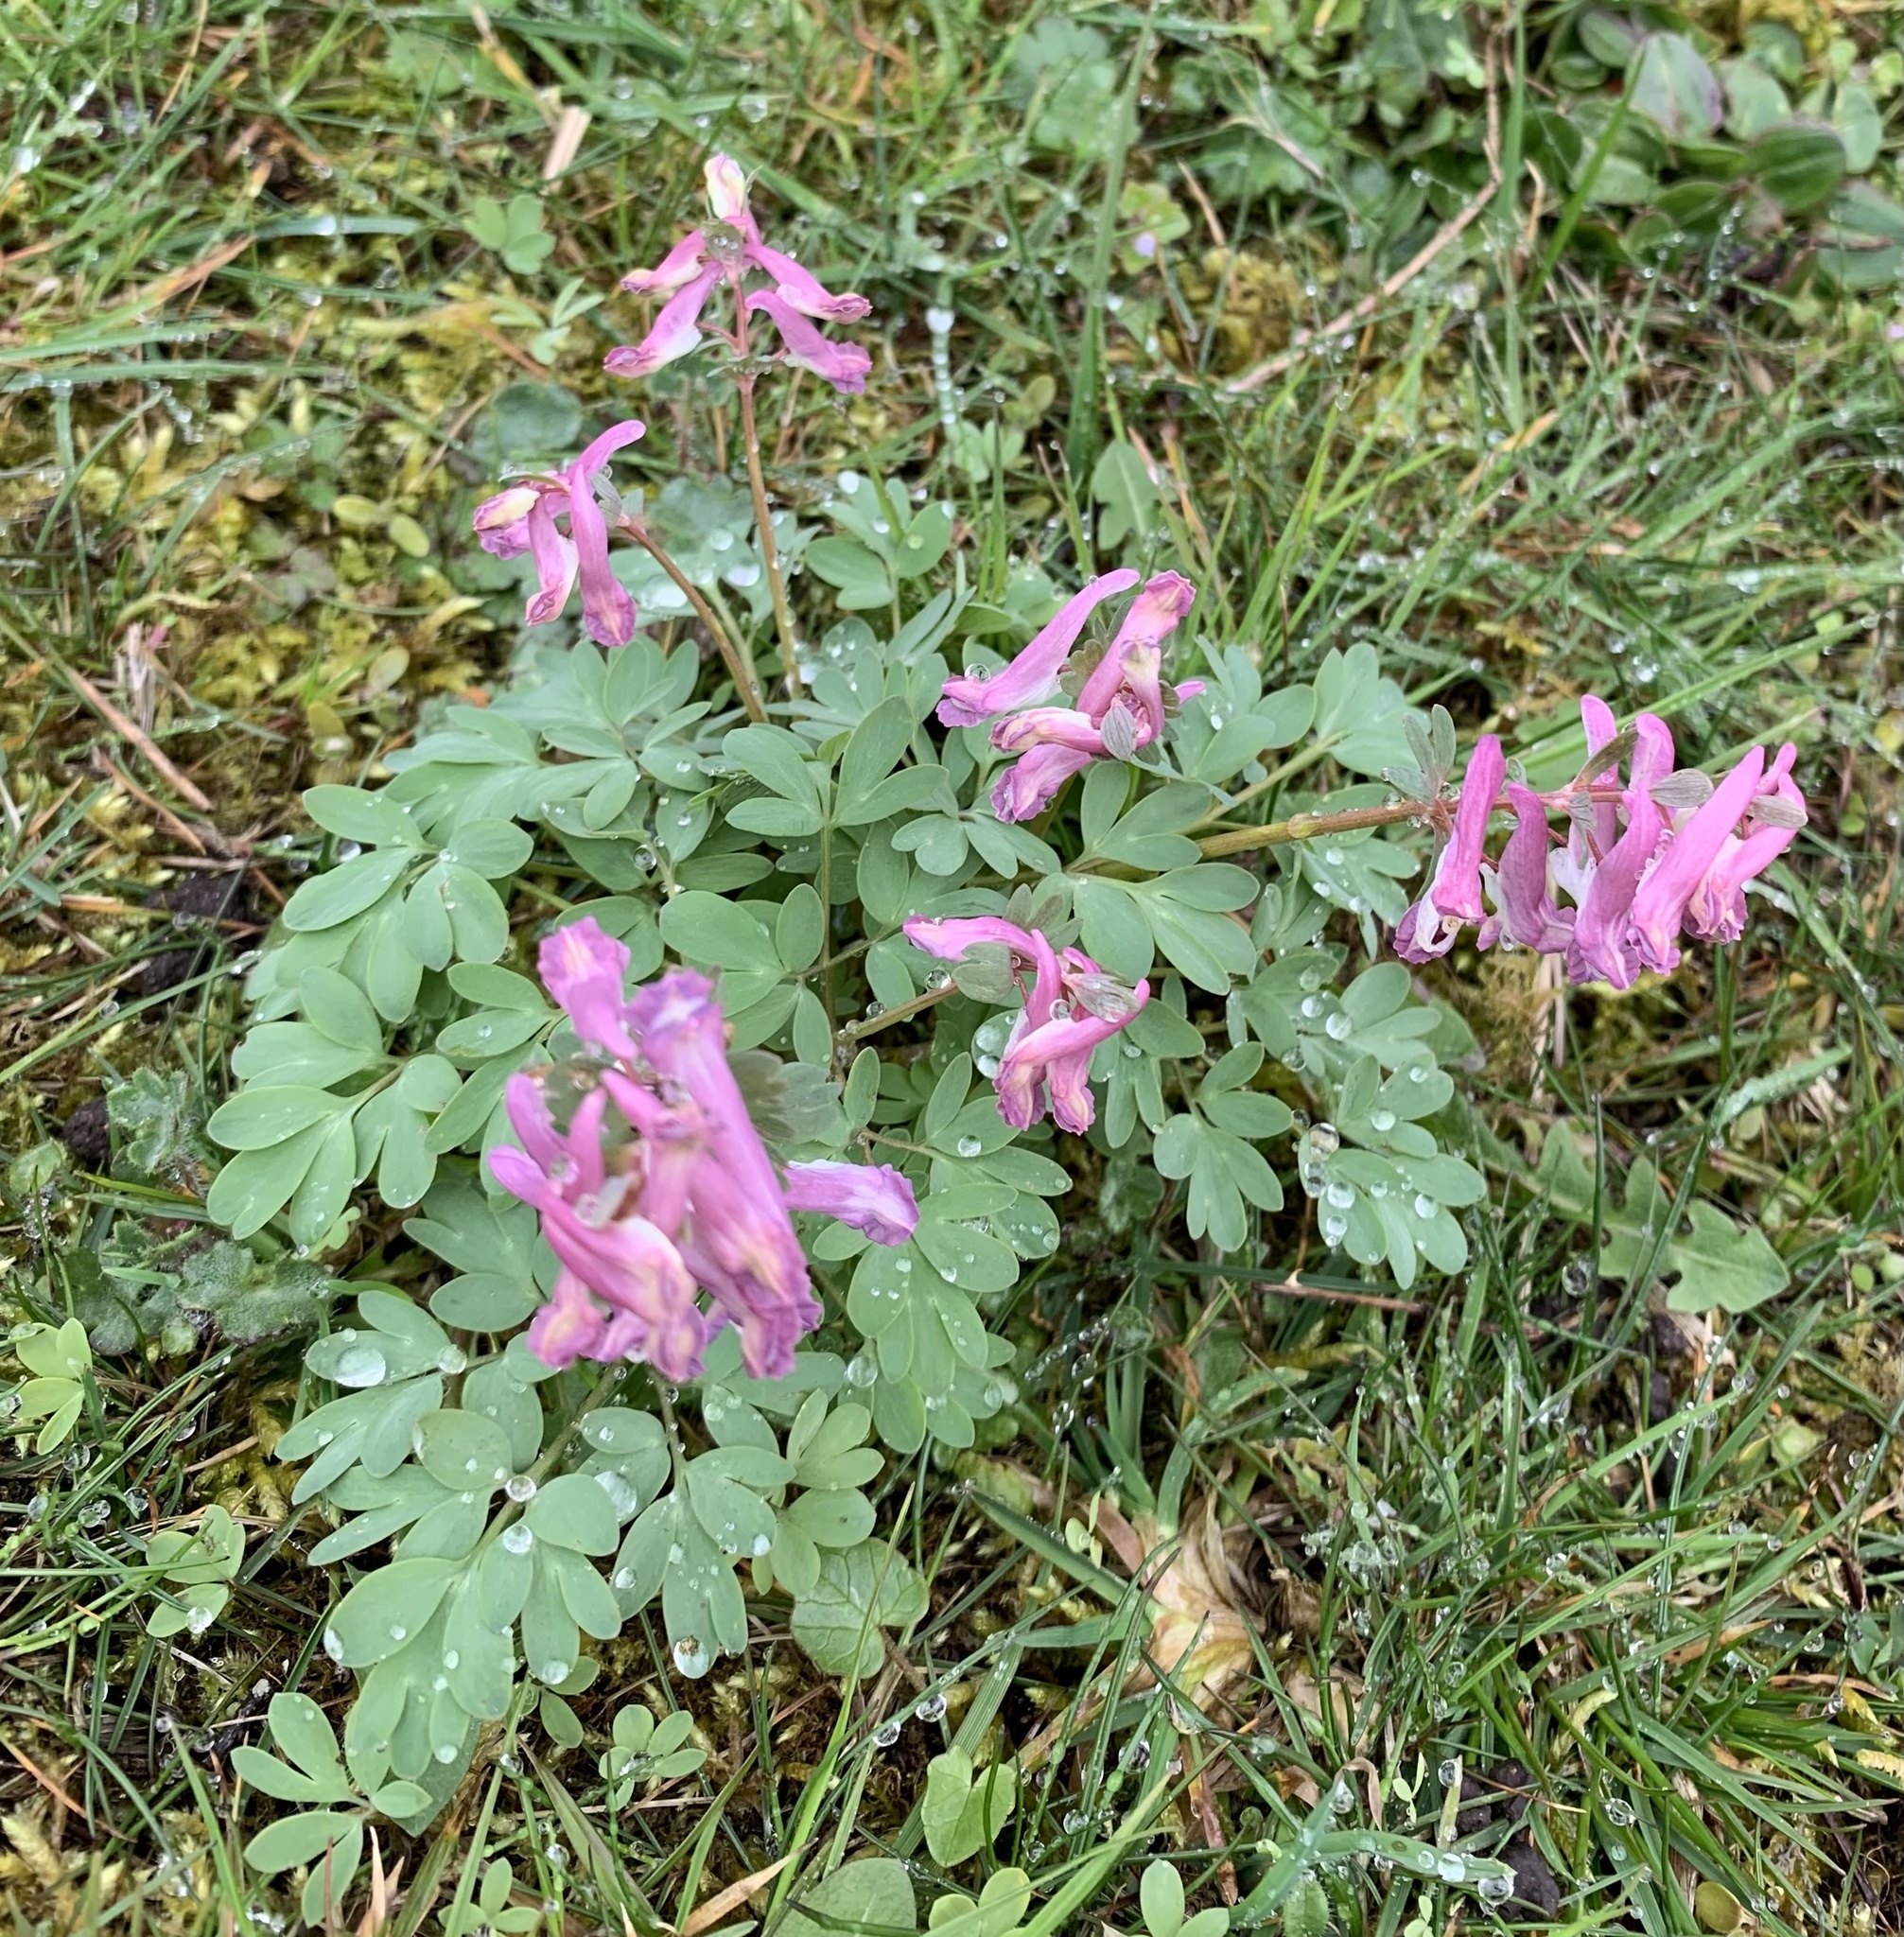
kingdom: Plantae
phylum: Tracheophyta
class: Magnoliopsida
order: Ranunculales
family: Papaveraceae
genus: Corydalis
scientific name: Corydalis solida
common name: Bird-in-a-bush
